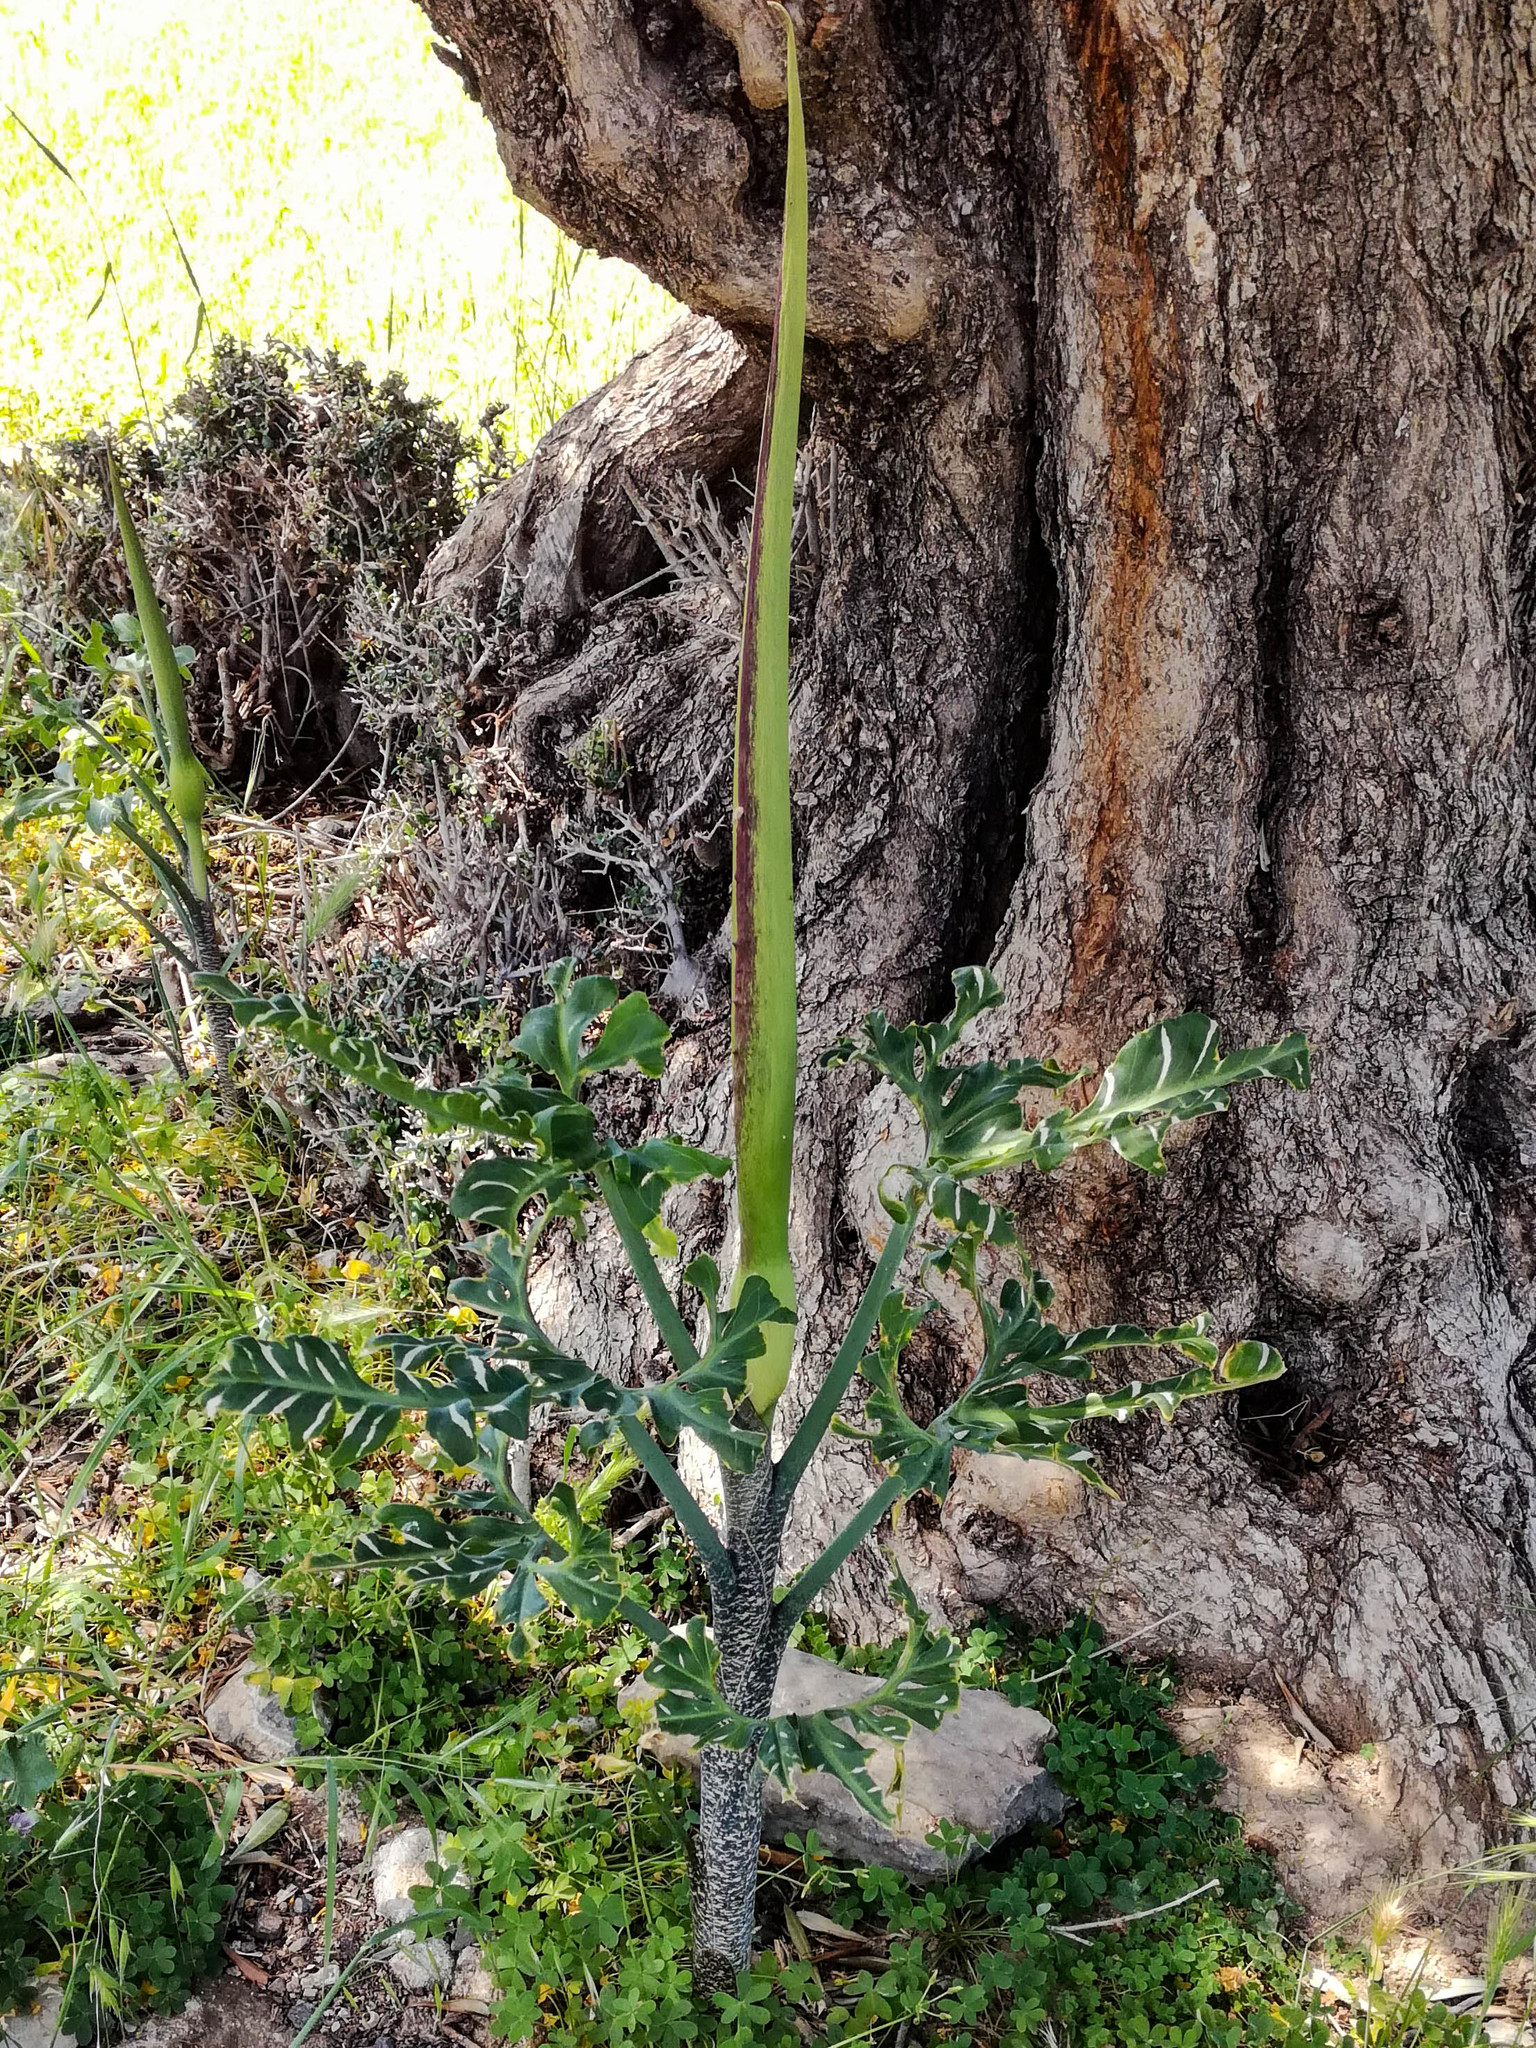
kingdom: Plantae
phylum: Tracheophyta
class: Liliopsida
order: Alismatales
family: Araceae
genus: Dracunculus
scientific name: Dracunculus vulgaris
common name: Dragon arum
